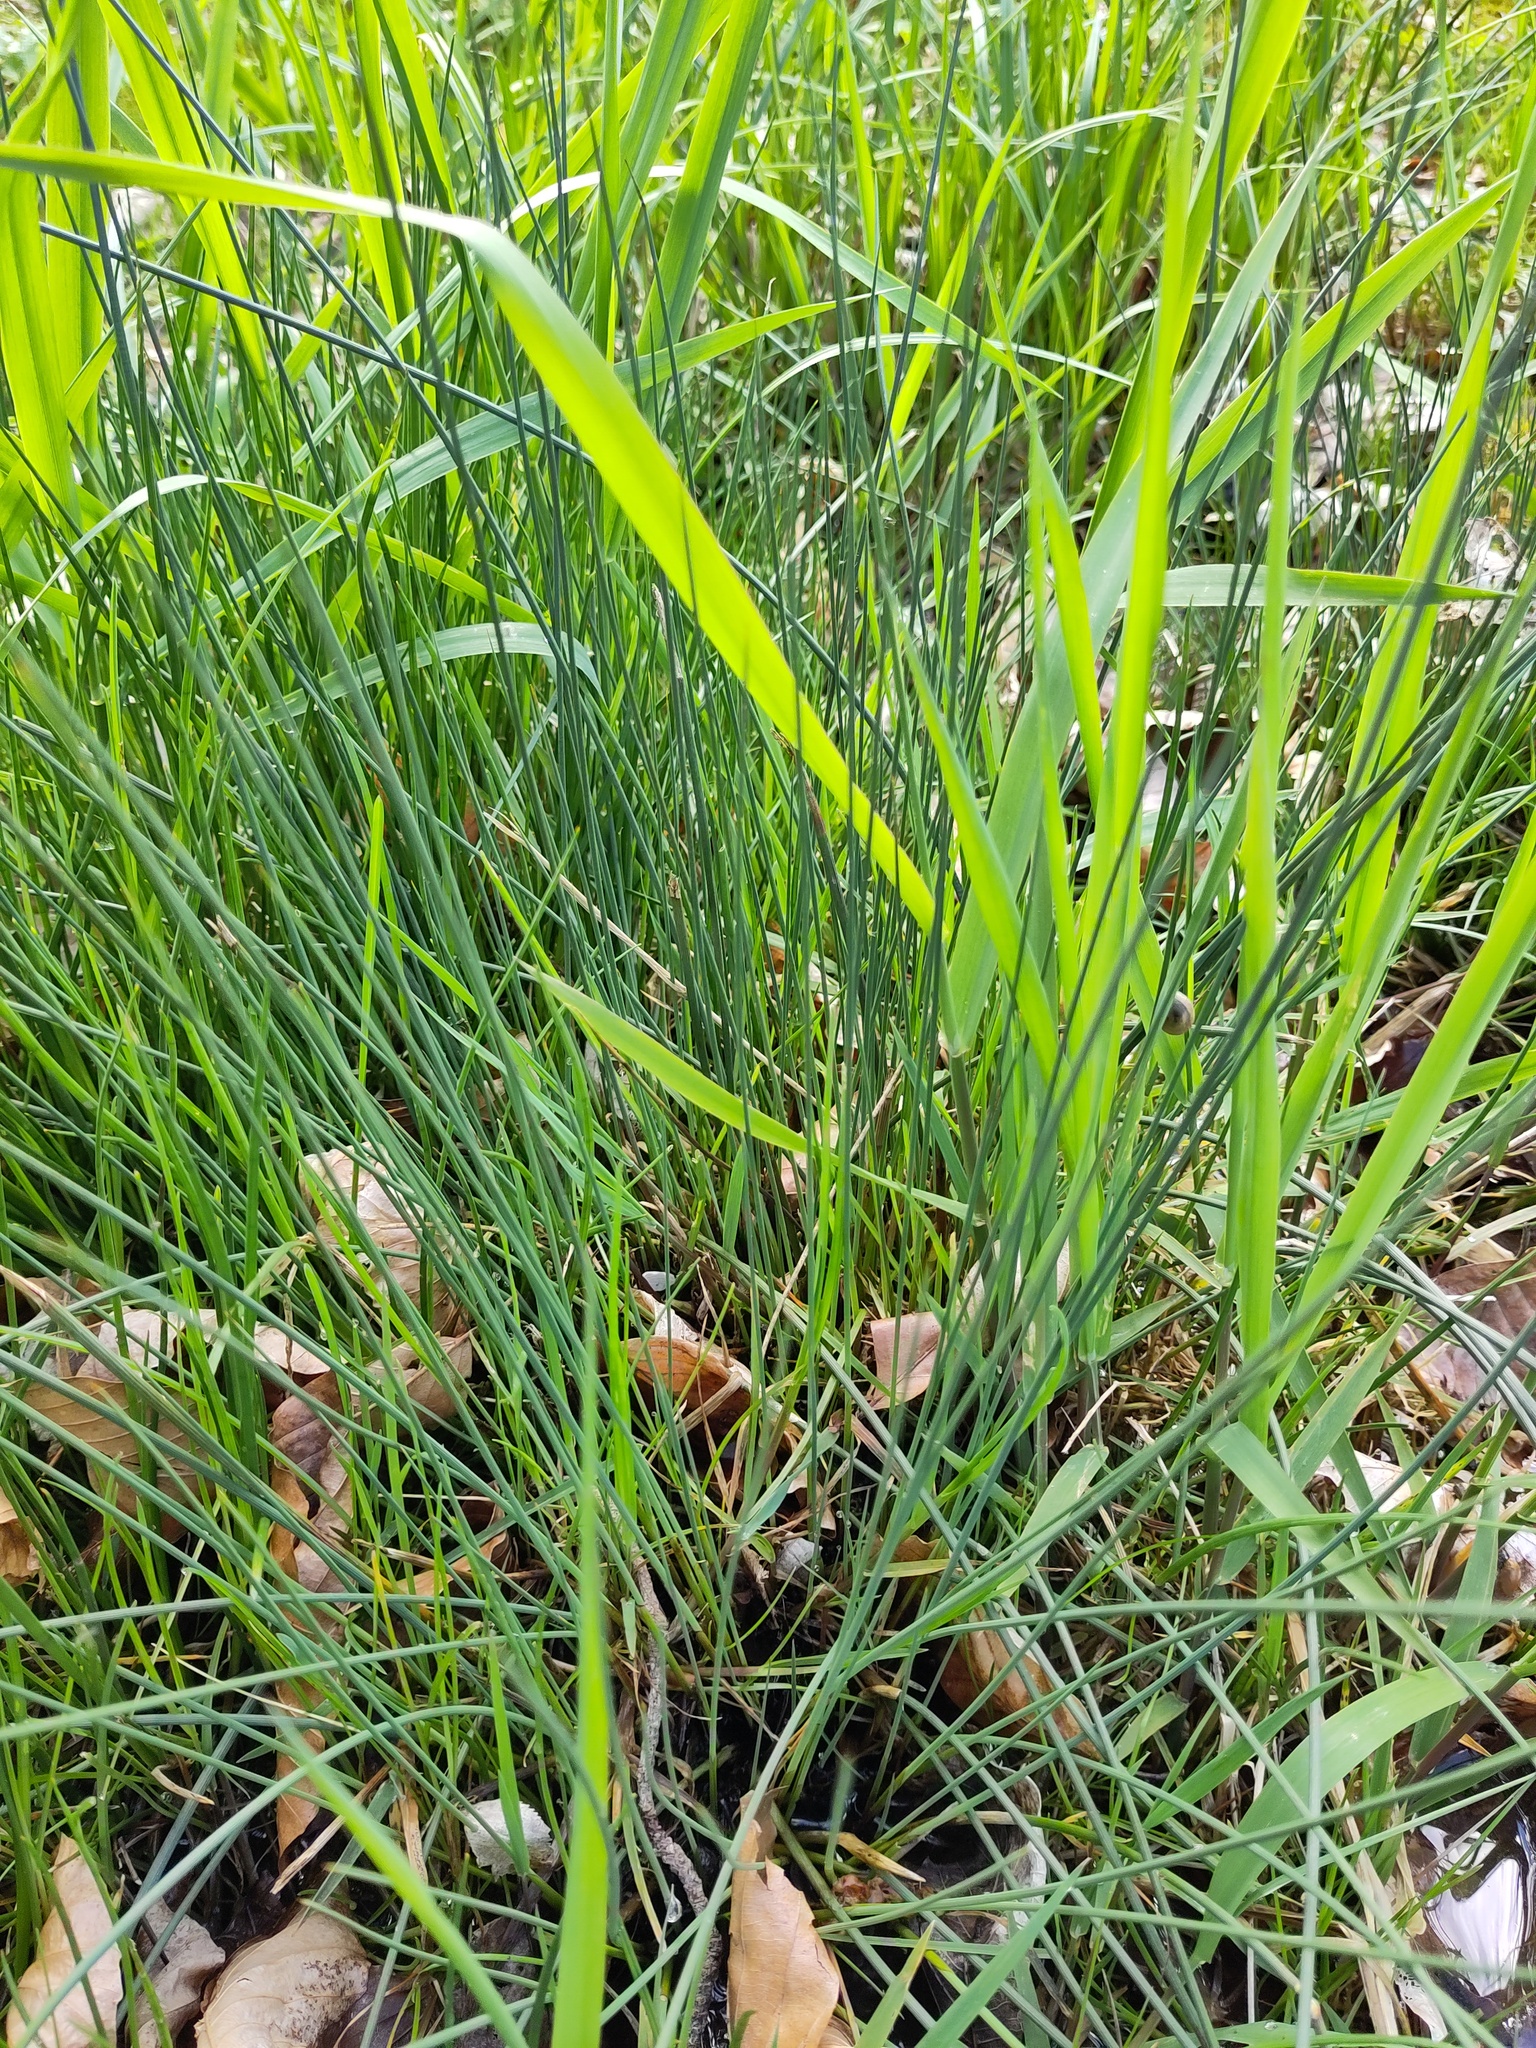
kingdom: Plantae
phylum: Tracheophyta
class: Liliopsida
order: Poales
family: Juncaceae
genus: Juncus
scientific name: Juncus inflexus
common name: Hard rush
